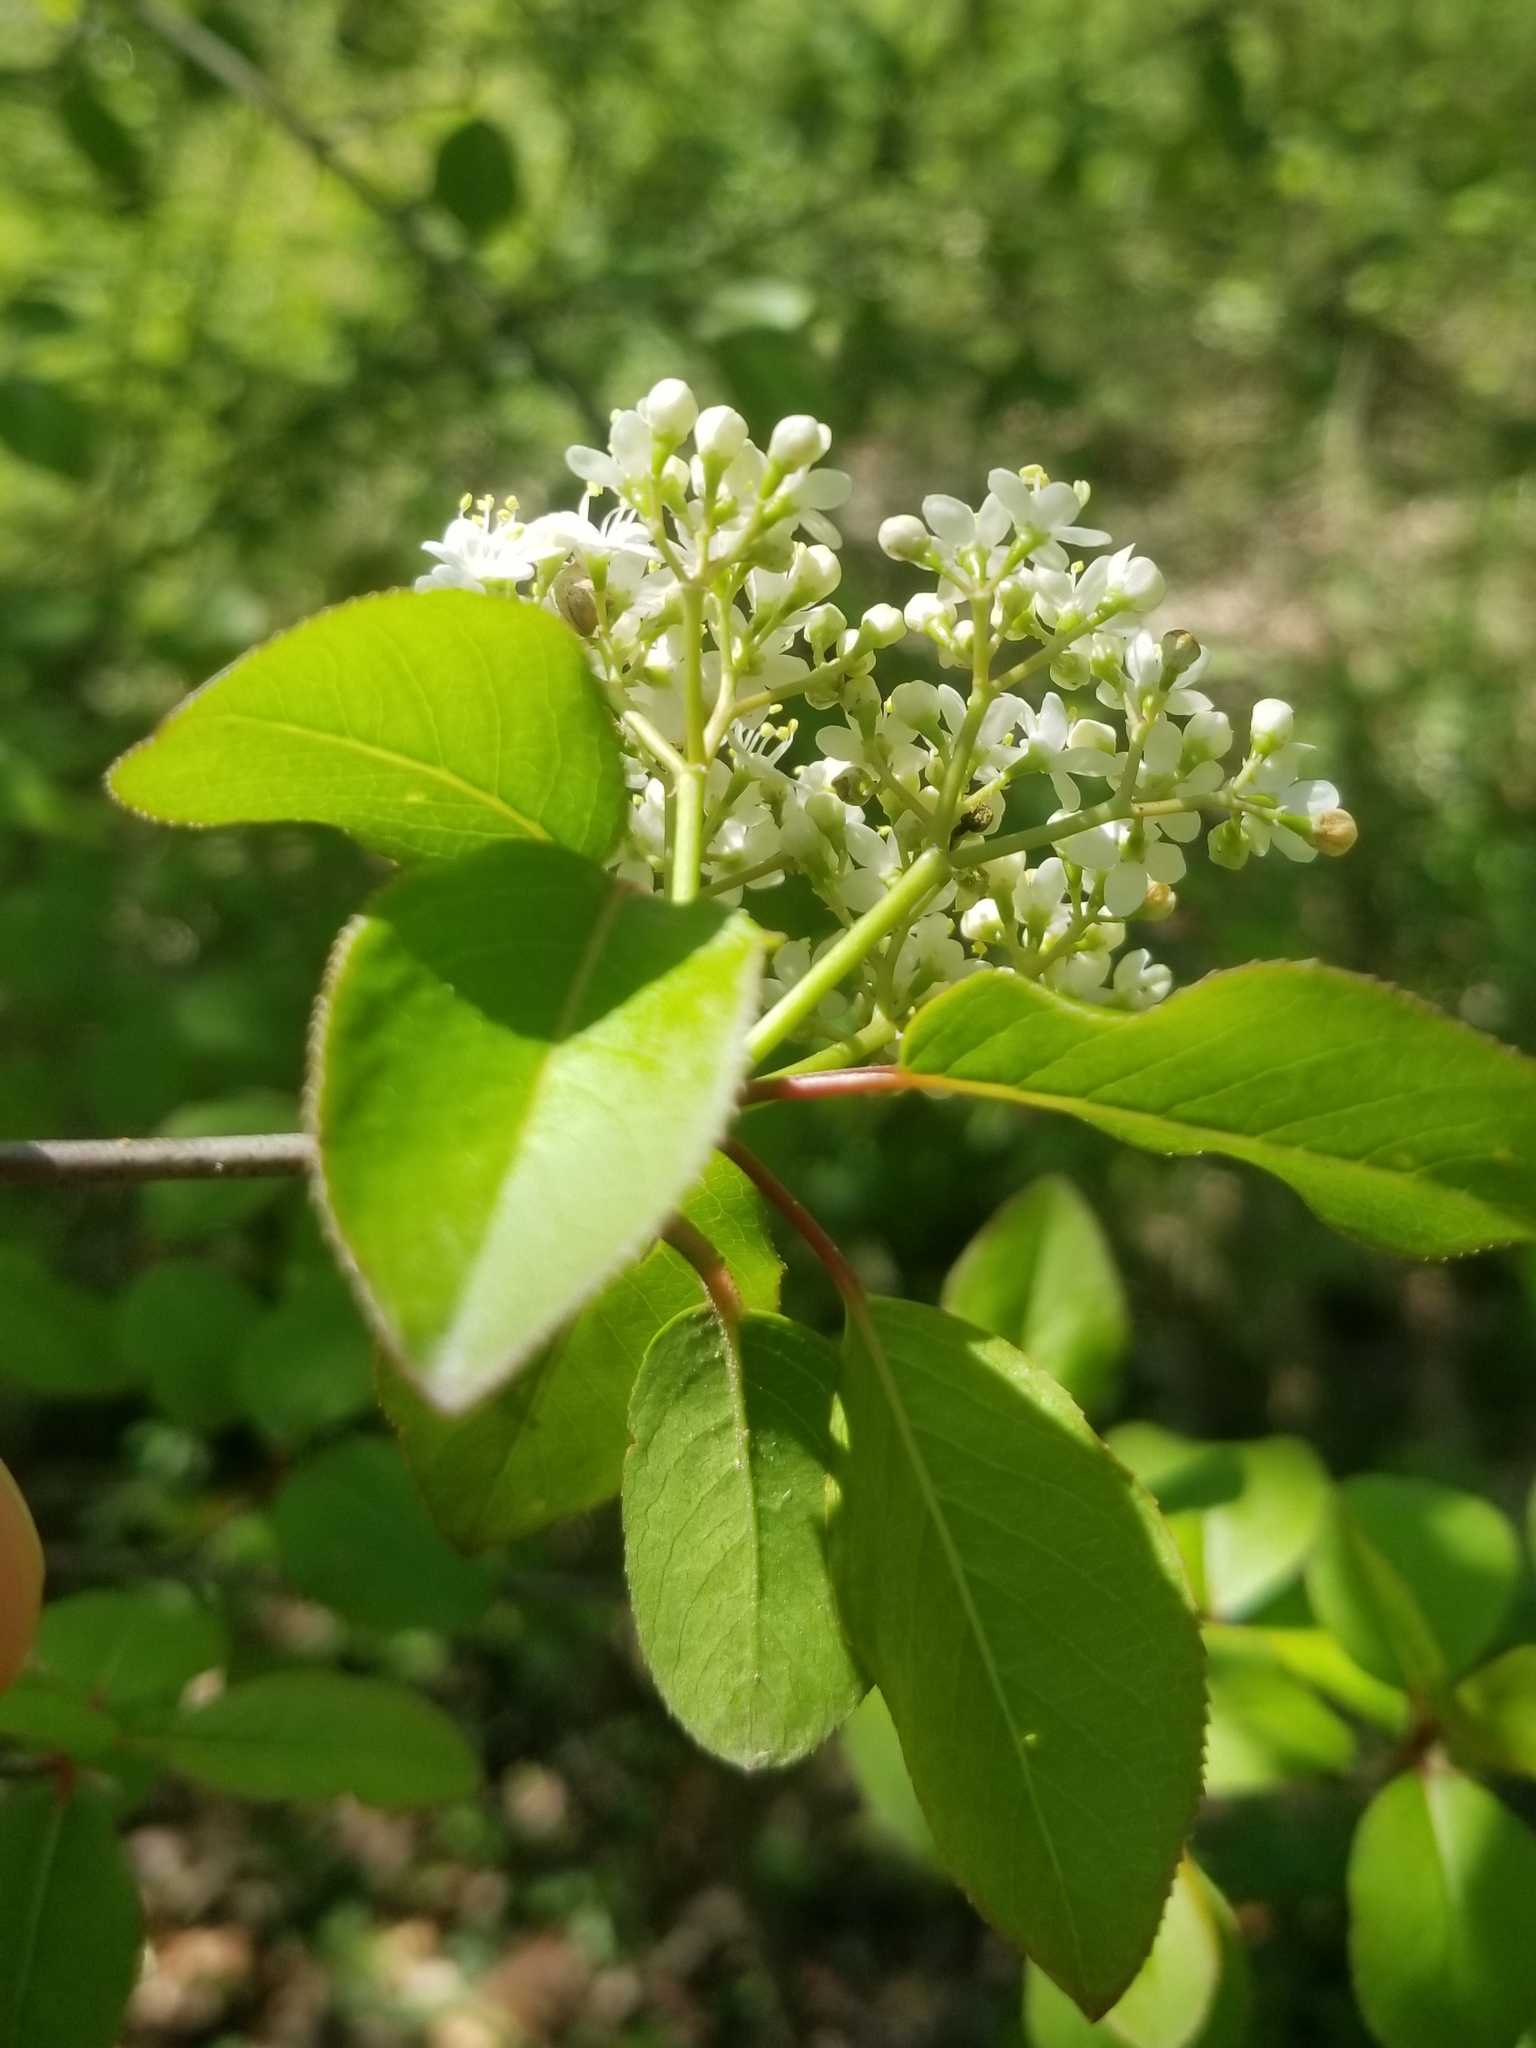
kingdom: Plantae
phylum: Tracheophyta
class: Magnoliopsida
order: Dipsacales
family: Viburnaceae
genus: Viburnum
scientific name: Viburnum prunifolium
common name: Black haw
